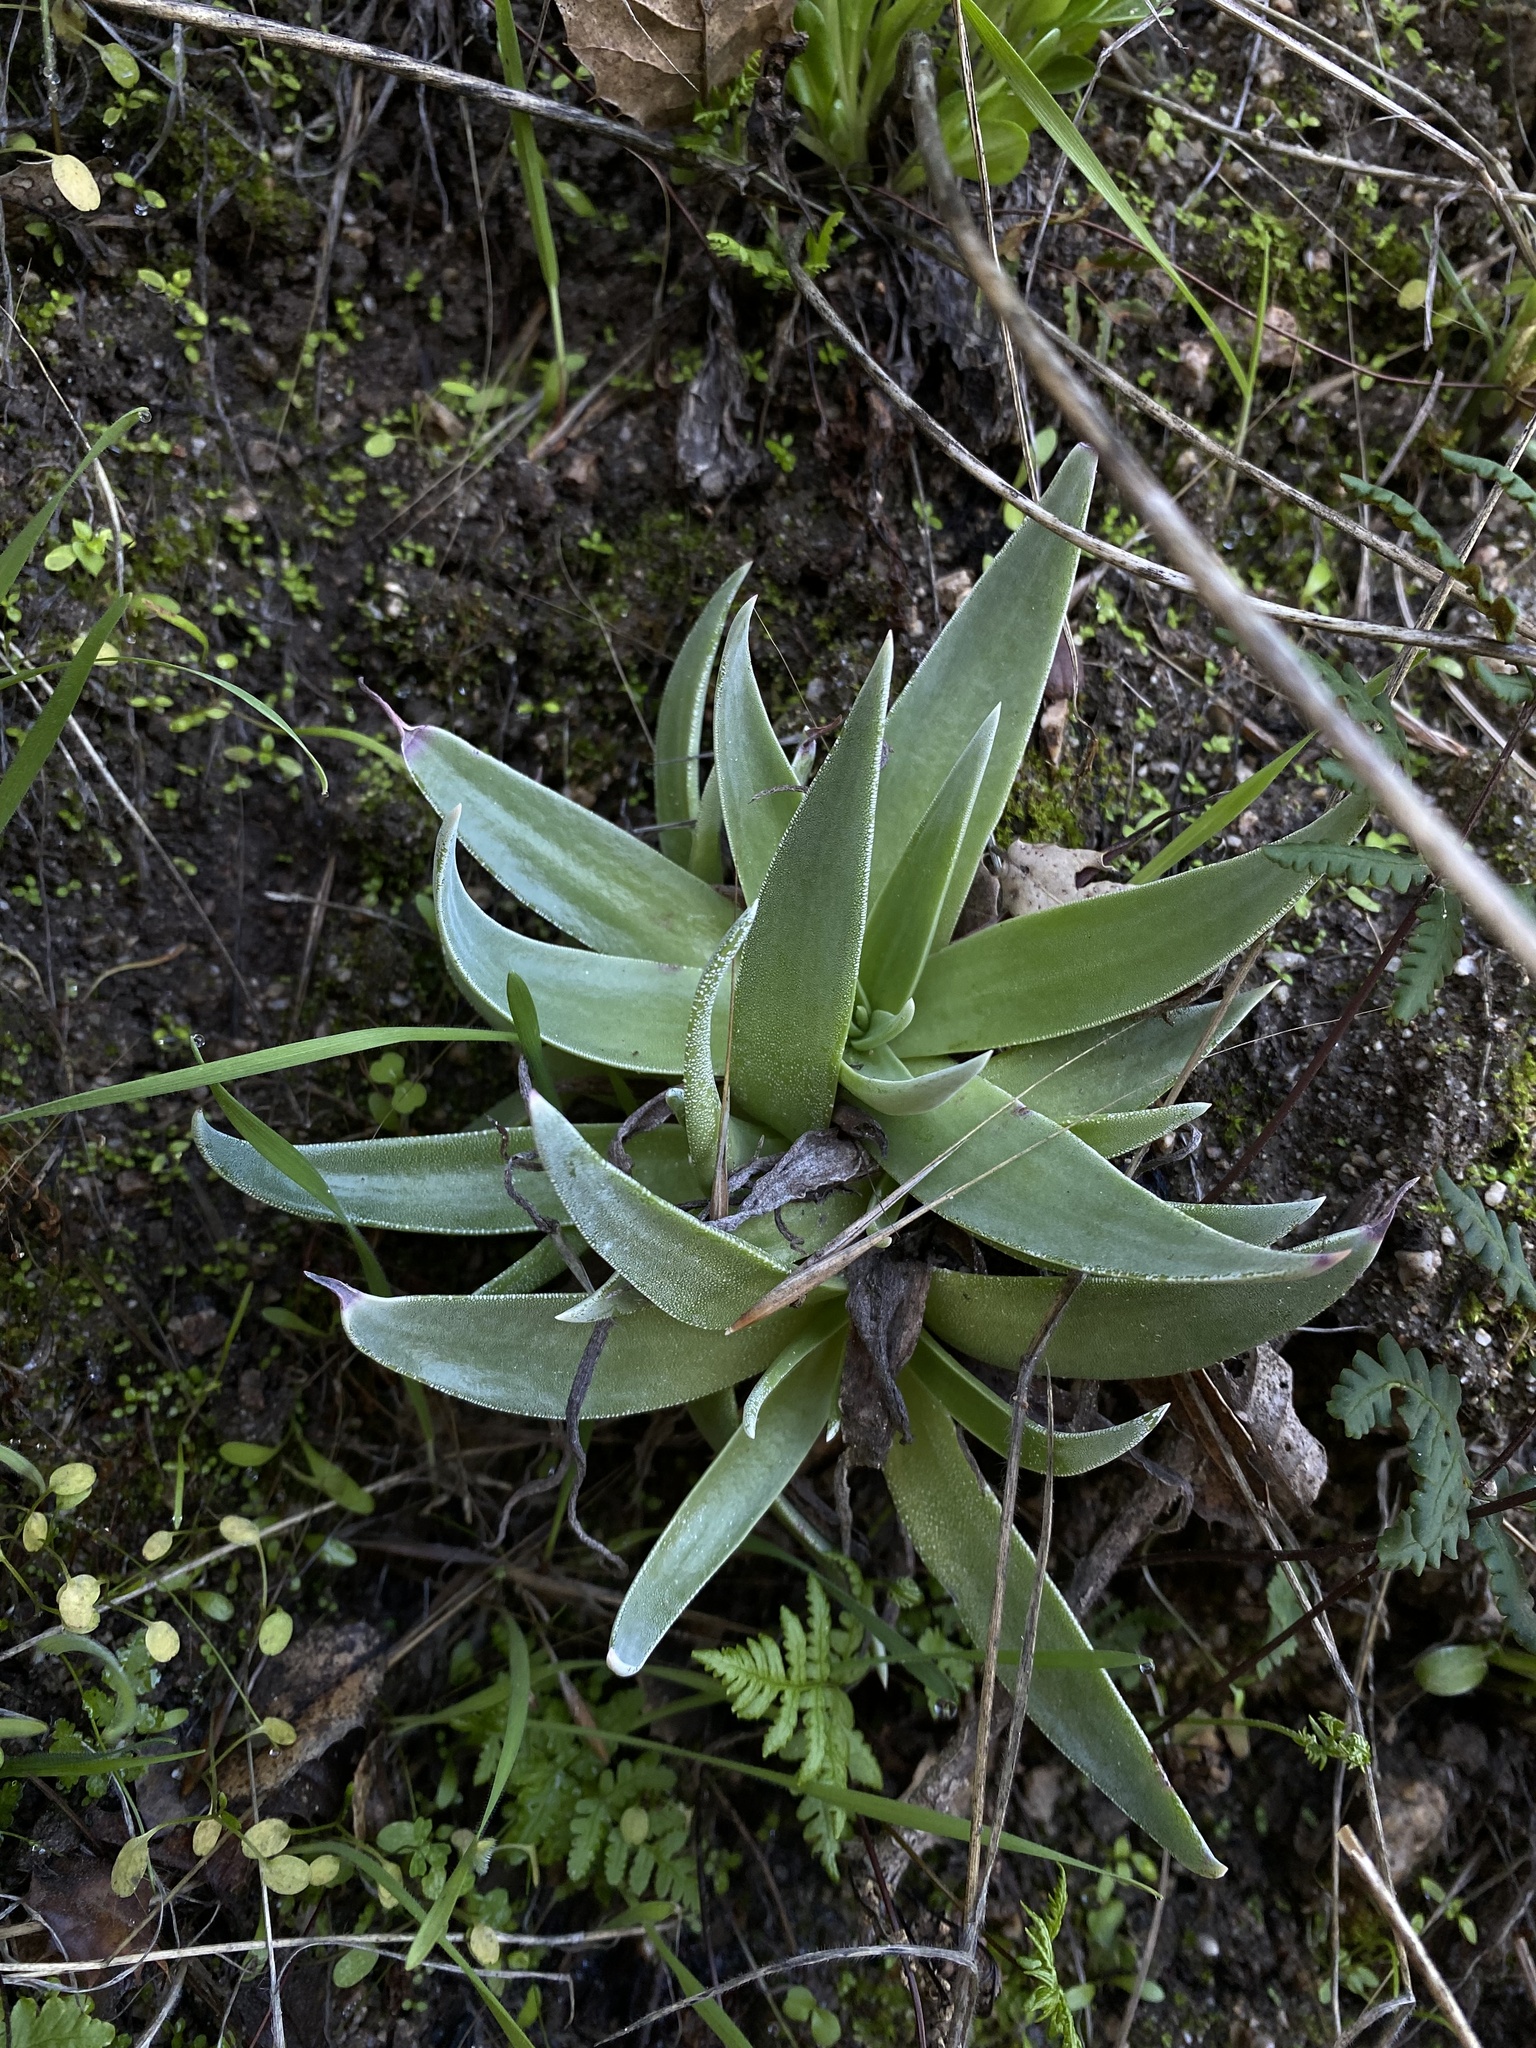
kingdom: Plantae
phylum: Tracheophyta
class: Magnoliopsida
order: Saxifragales
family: Crassulaceae
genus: Dudleya
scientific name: Dudleya lanceolata
